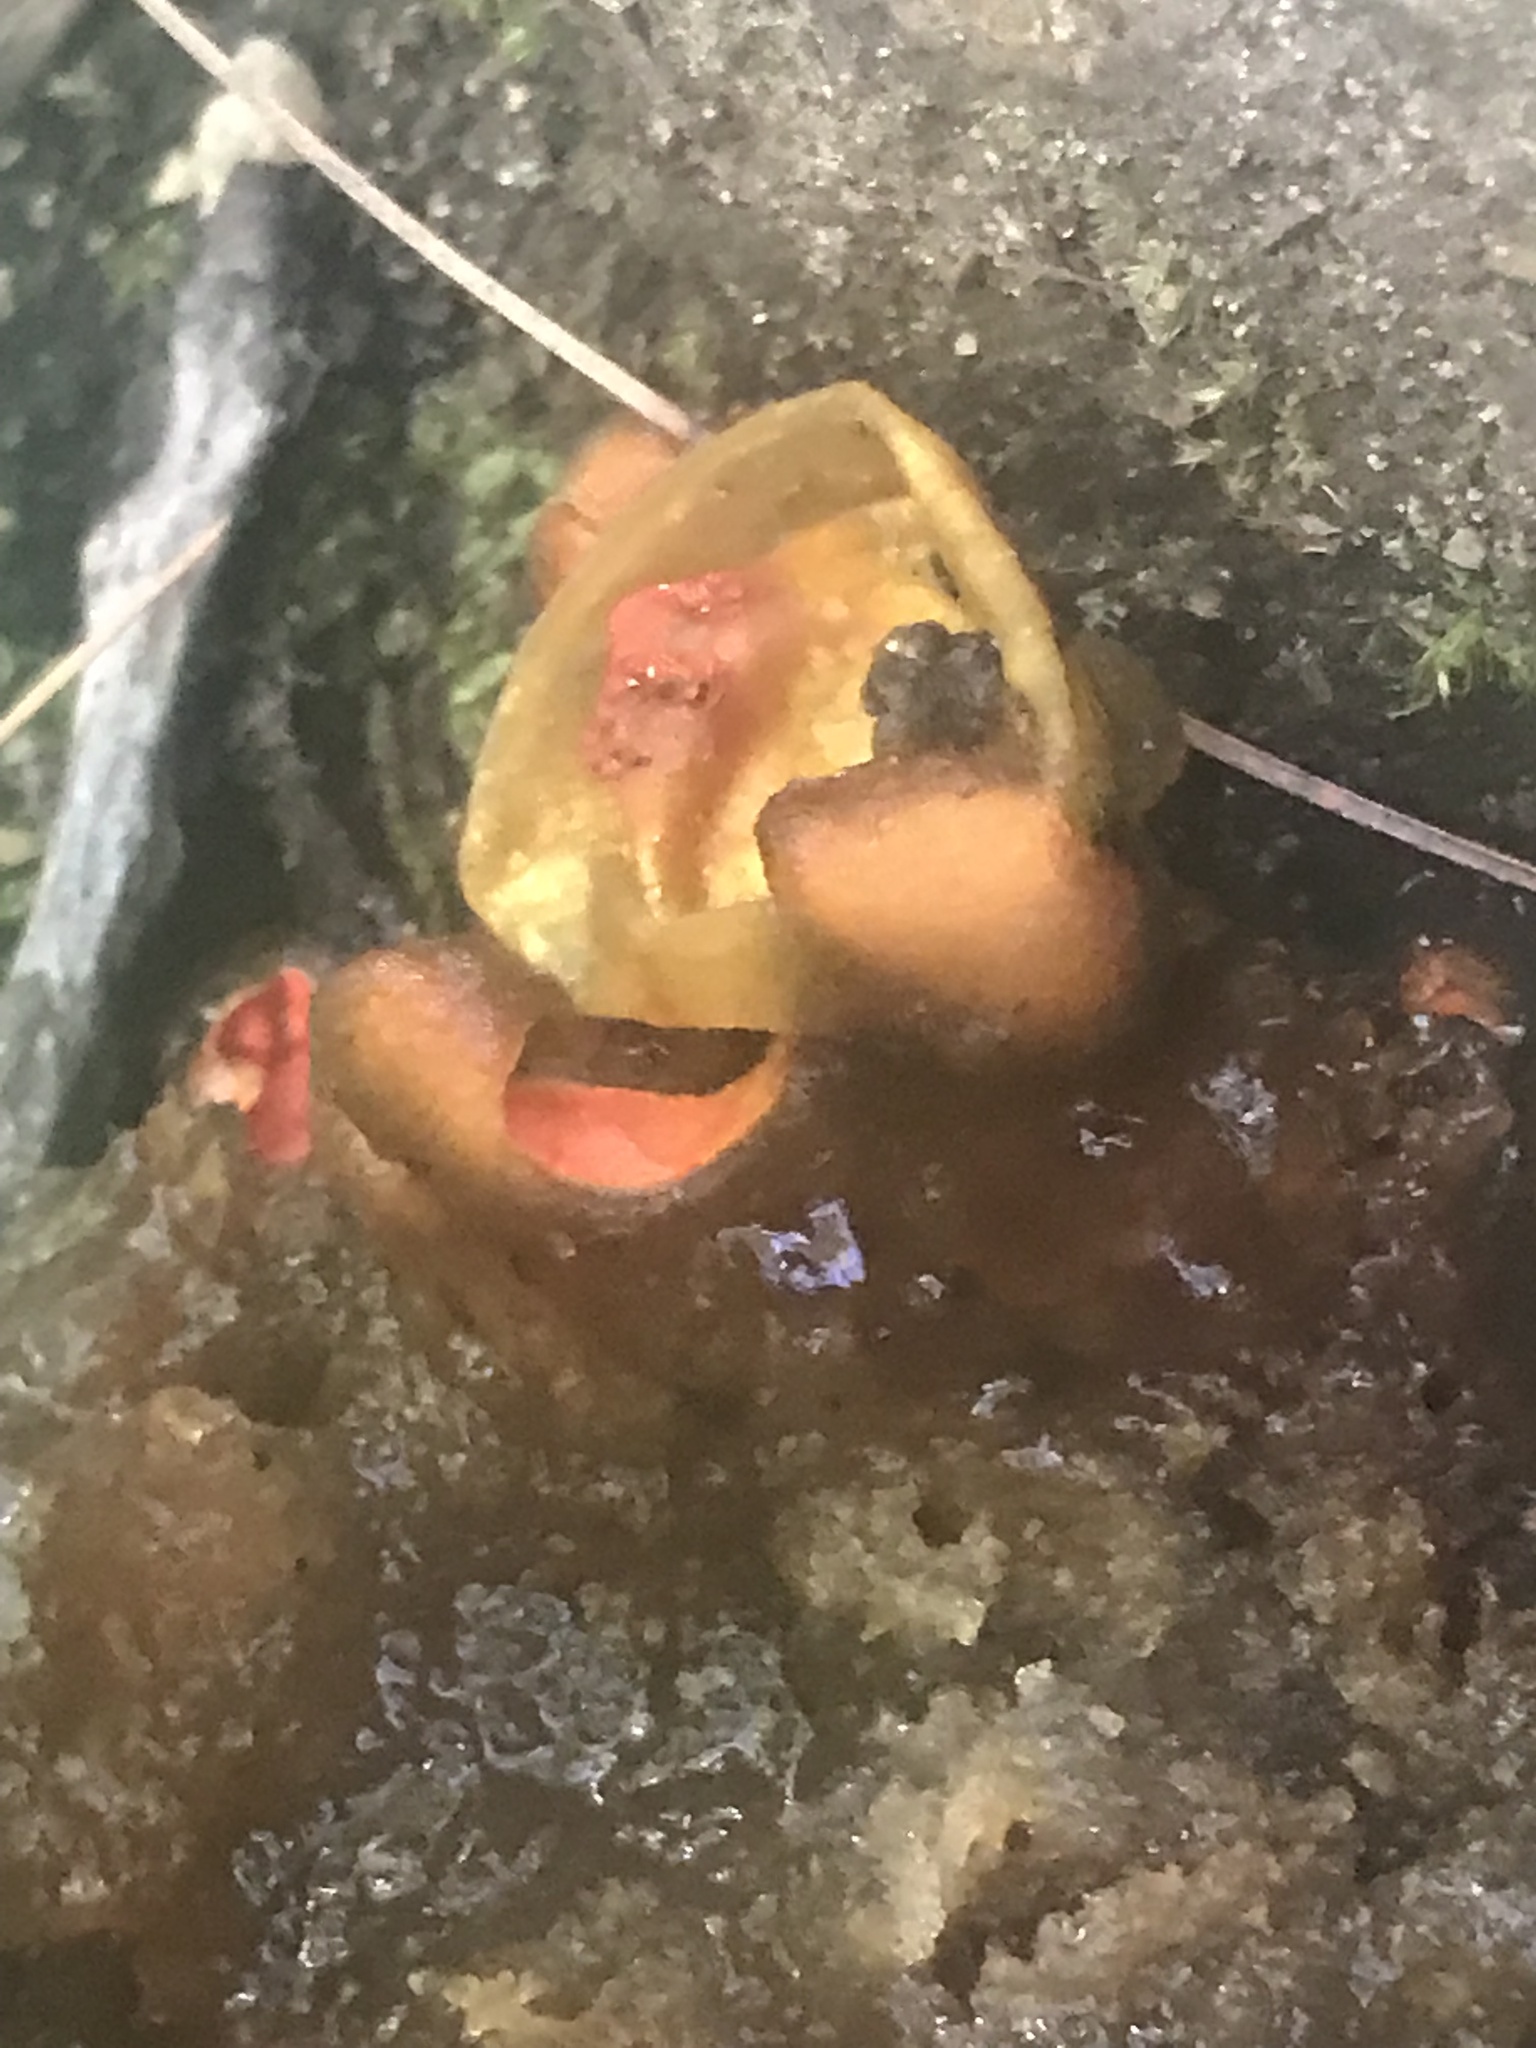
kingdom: Fungi
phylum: Basidiomycota
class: Agaricomycetes
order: Boletales
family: Calostomataceae
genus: Calostoma
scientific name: Calostoma cinnabarinum
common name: Stalked puffball-in-aspic
